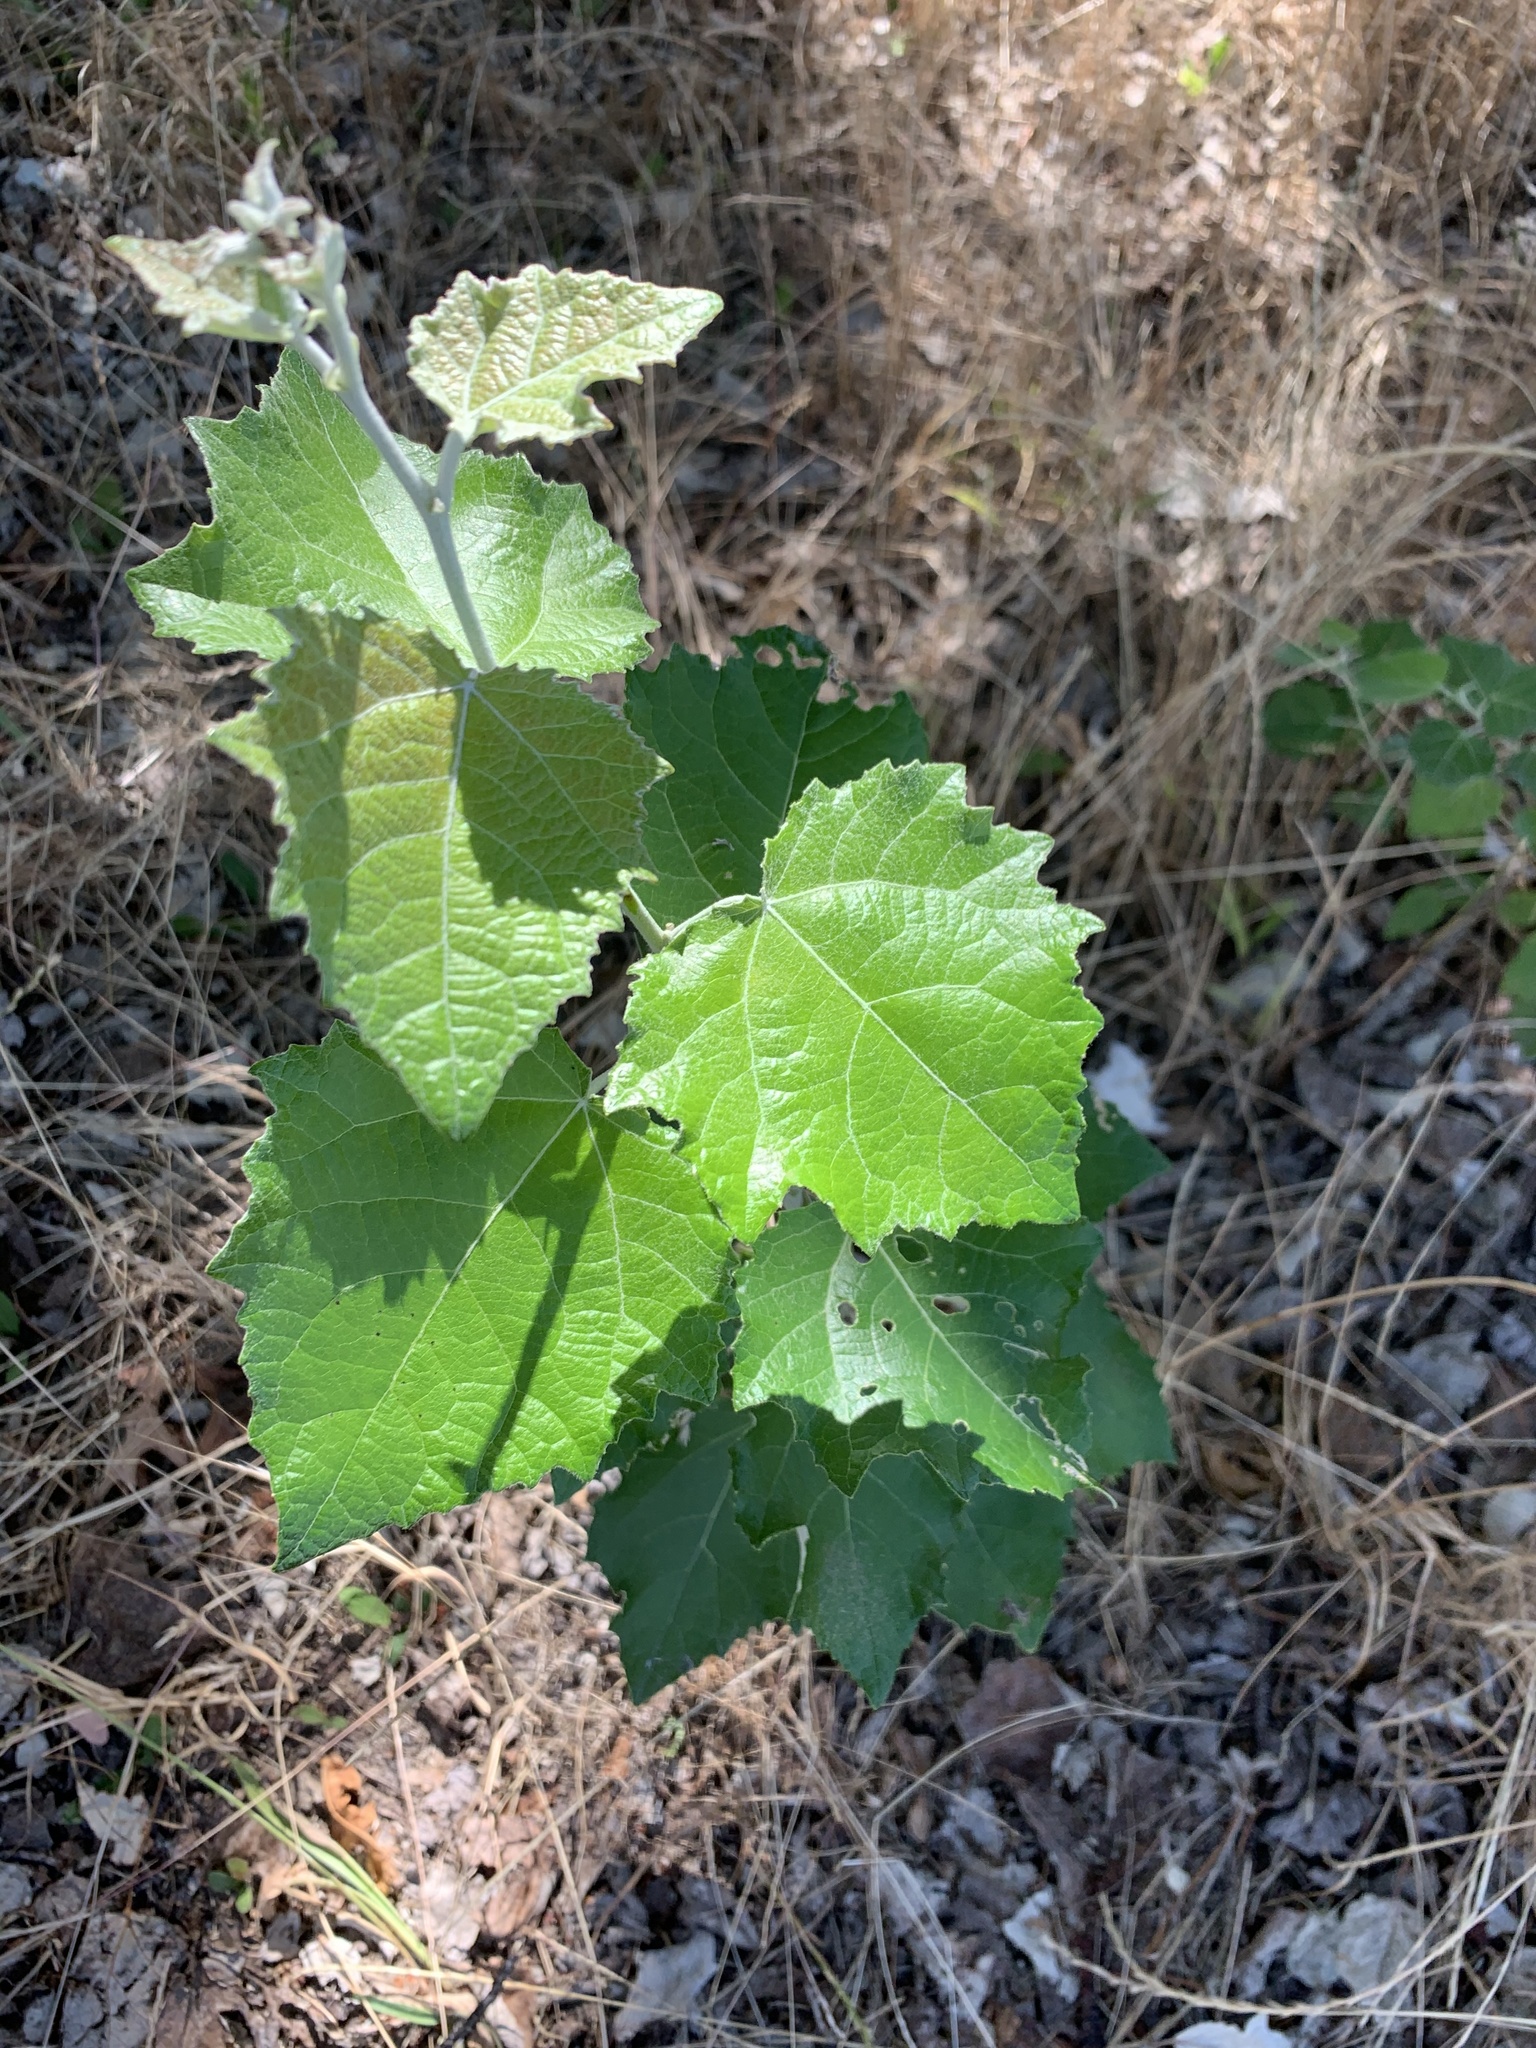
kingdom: Plantae
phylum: Tracheophyta
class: Magnoliopsida
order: Malpighiales
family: Salicaceae
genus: Populus
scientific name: Populus canescens
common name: Gray poplar
